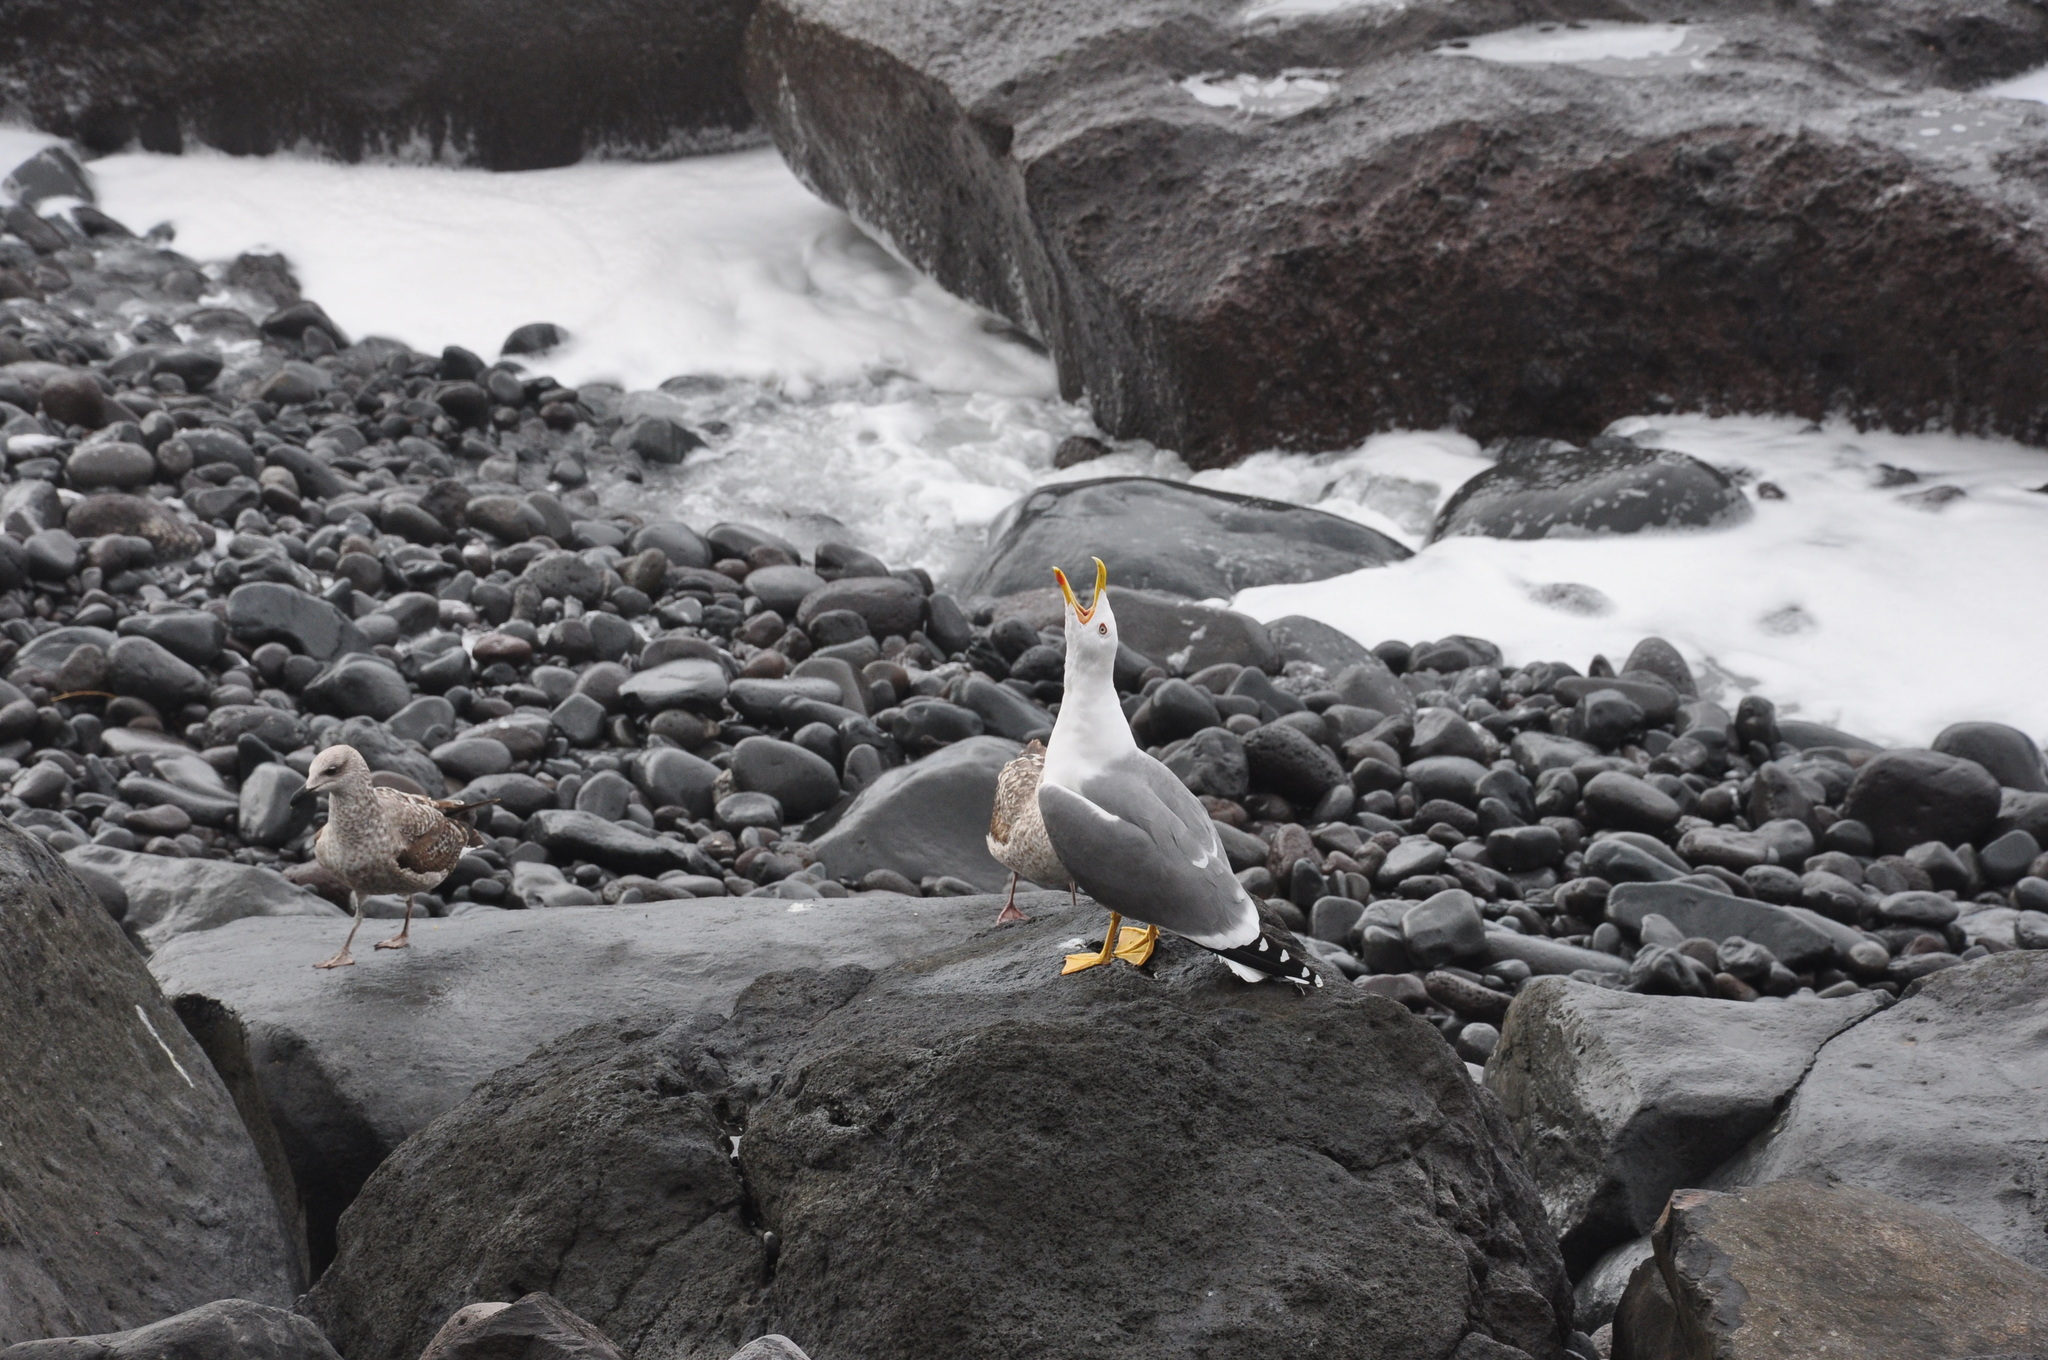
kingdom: Animalia
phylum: Chordata
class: Aves
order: Charadriiformes
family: Laridae
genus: Larus
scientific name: Larus michahellis
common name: Yellow-legged gull
